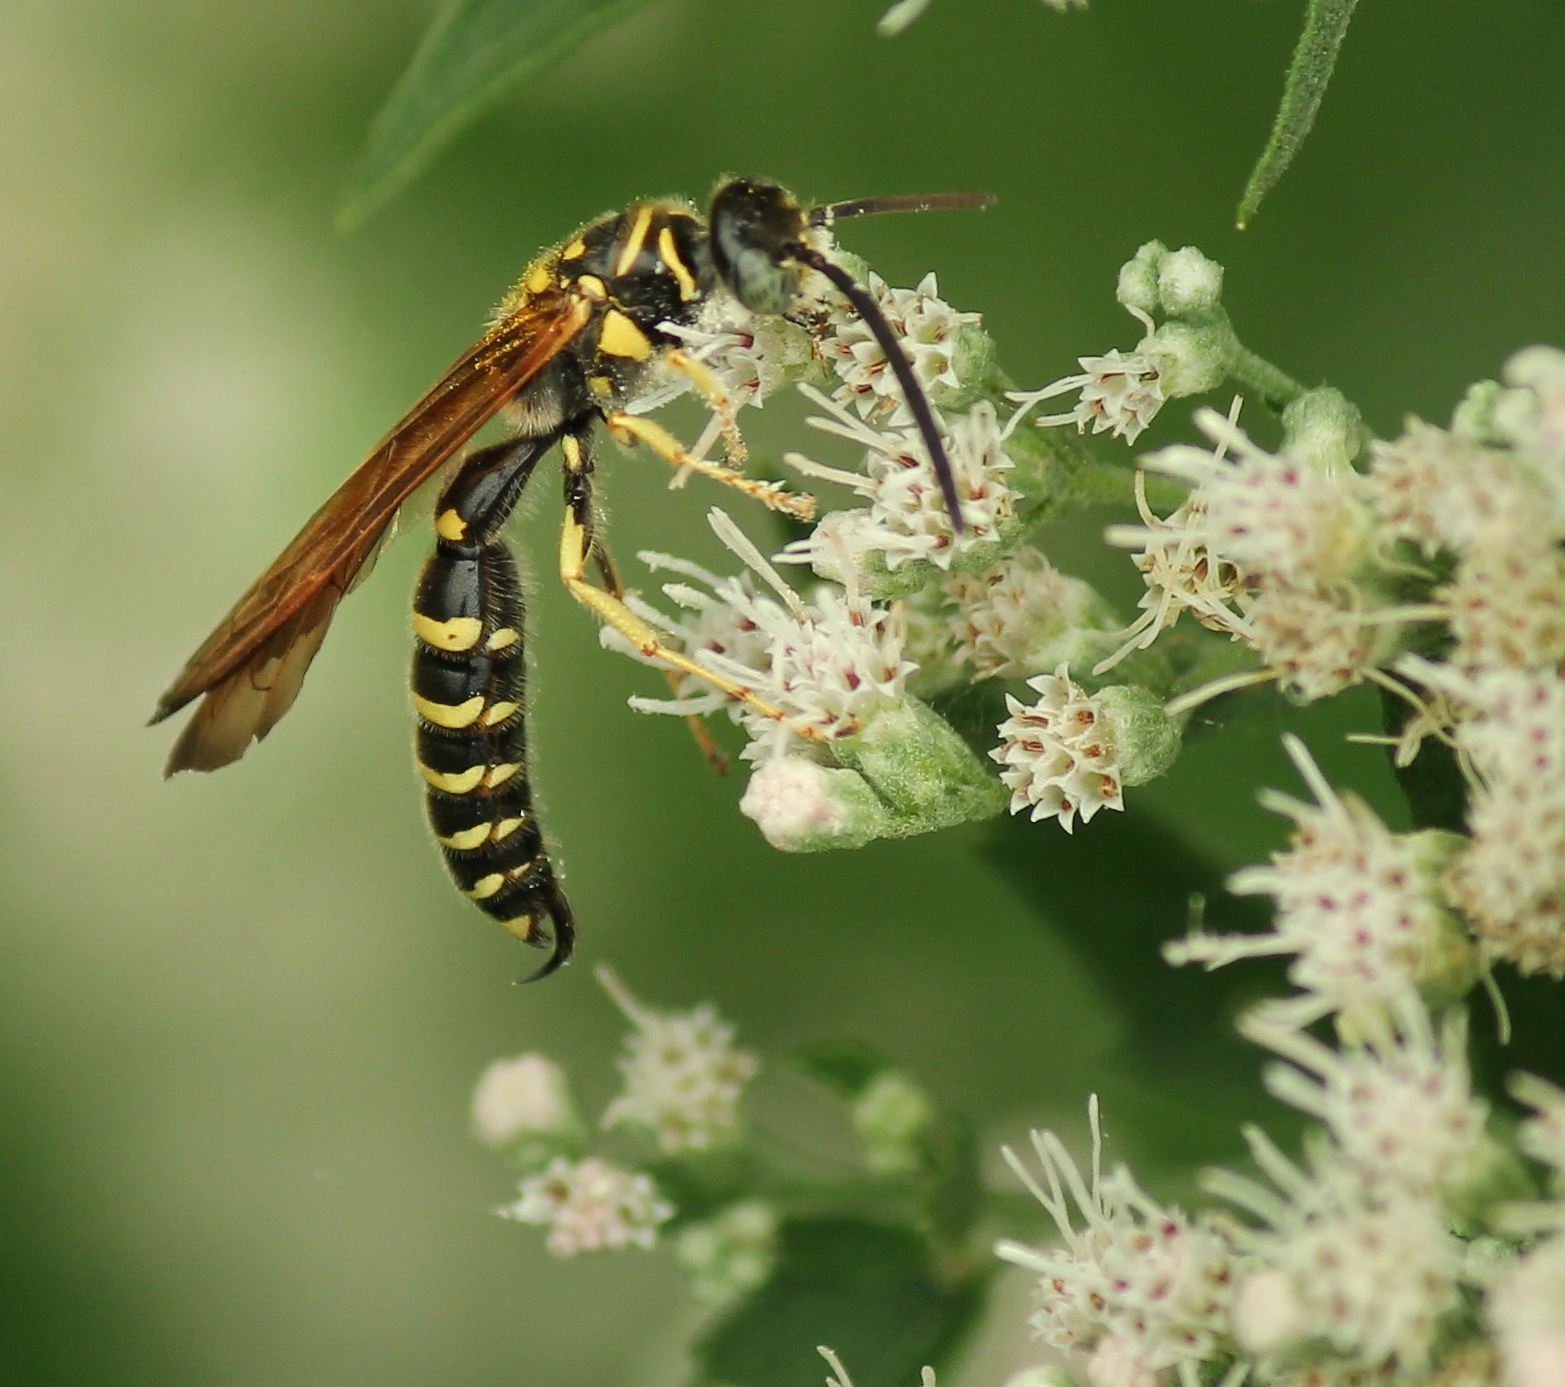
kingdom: Animalia
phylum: Arthropoda
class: Insecta
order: Hymenoptera
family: Tiphiidae
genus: Myzinum
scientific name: Myzinum quinquecinctum
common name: Five-banded thynnid wasp
